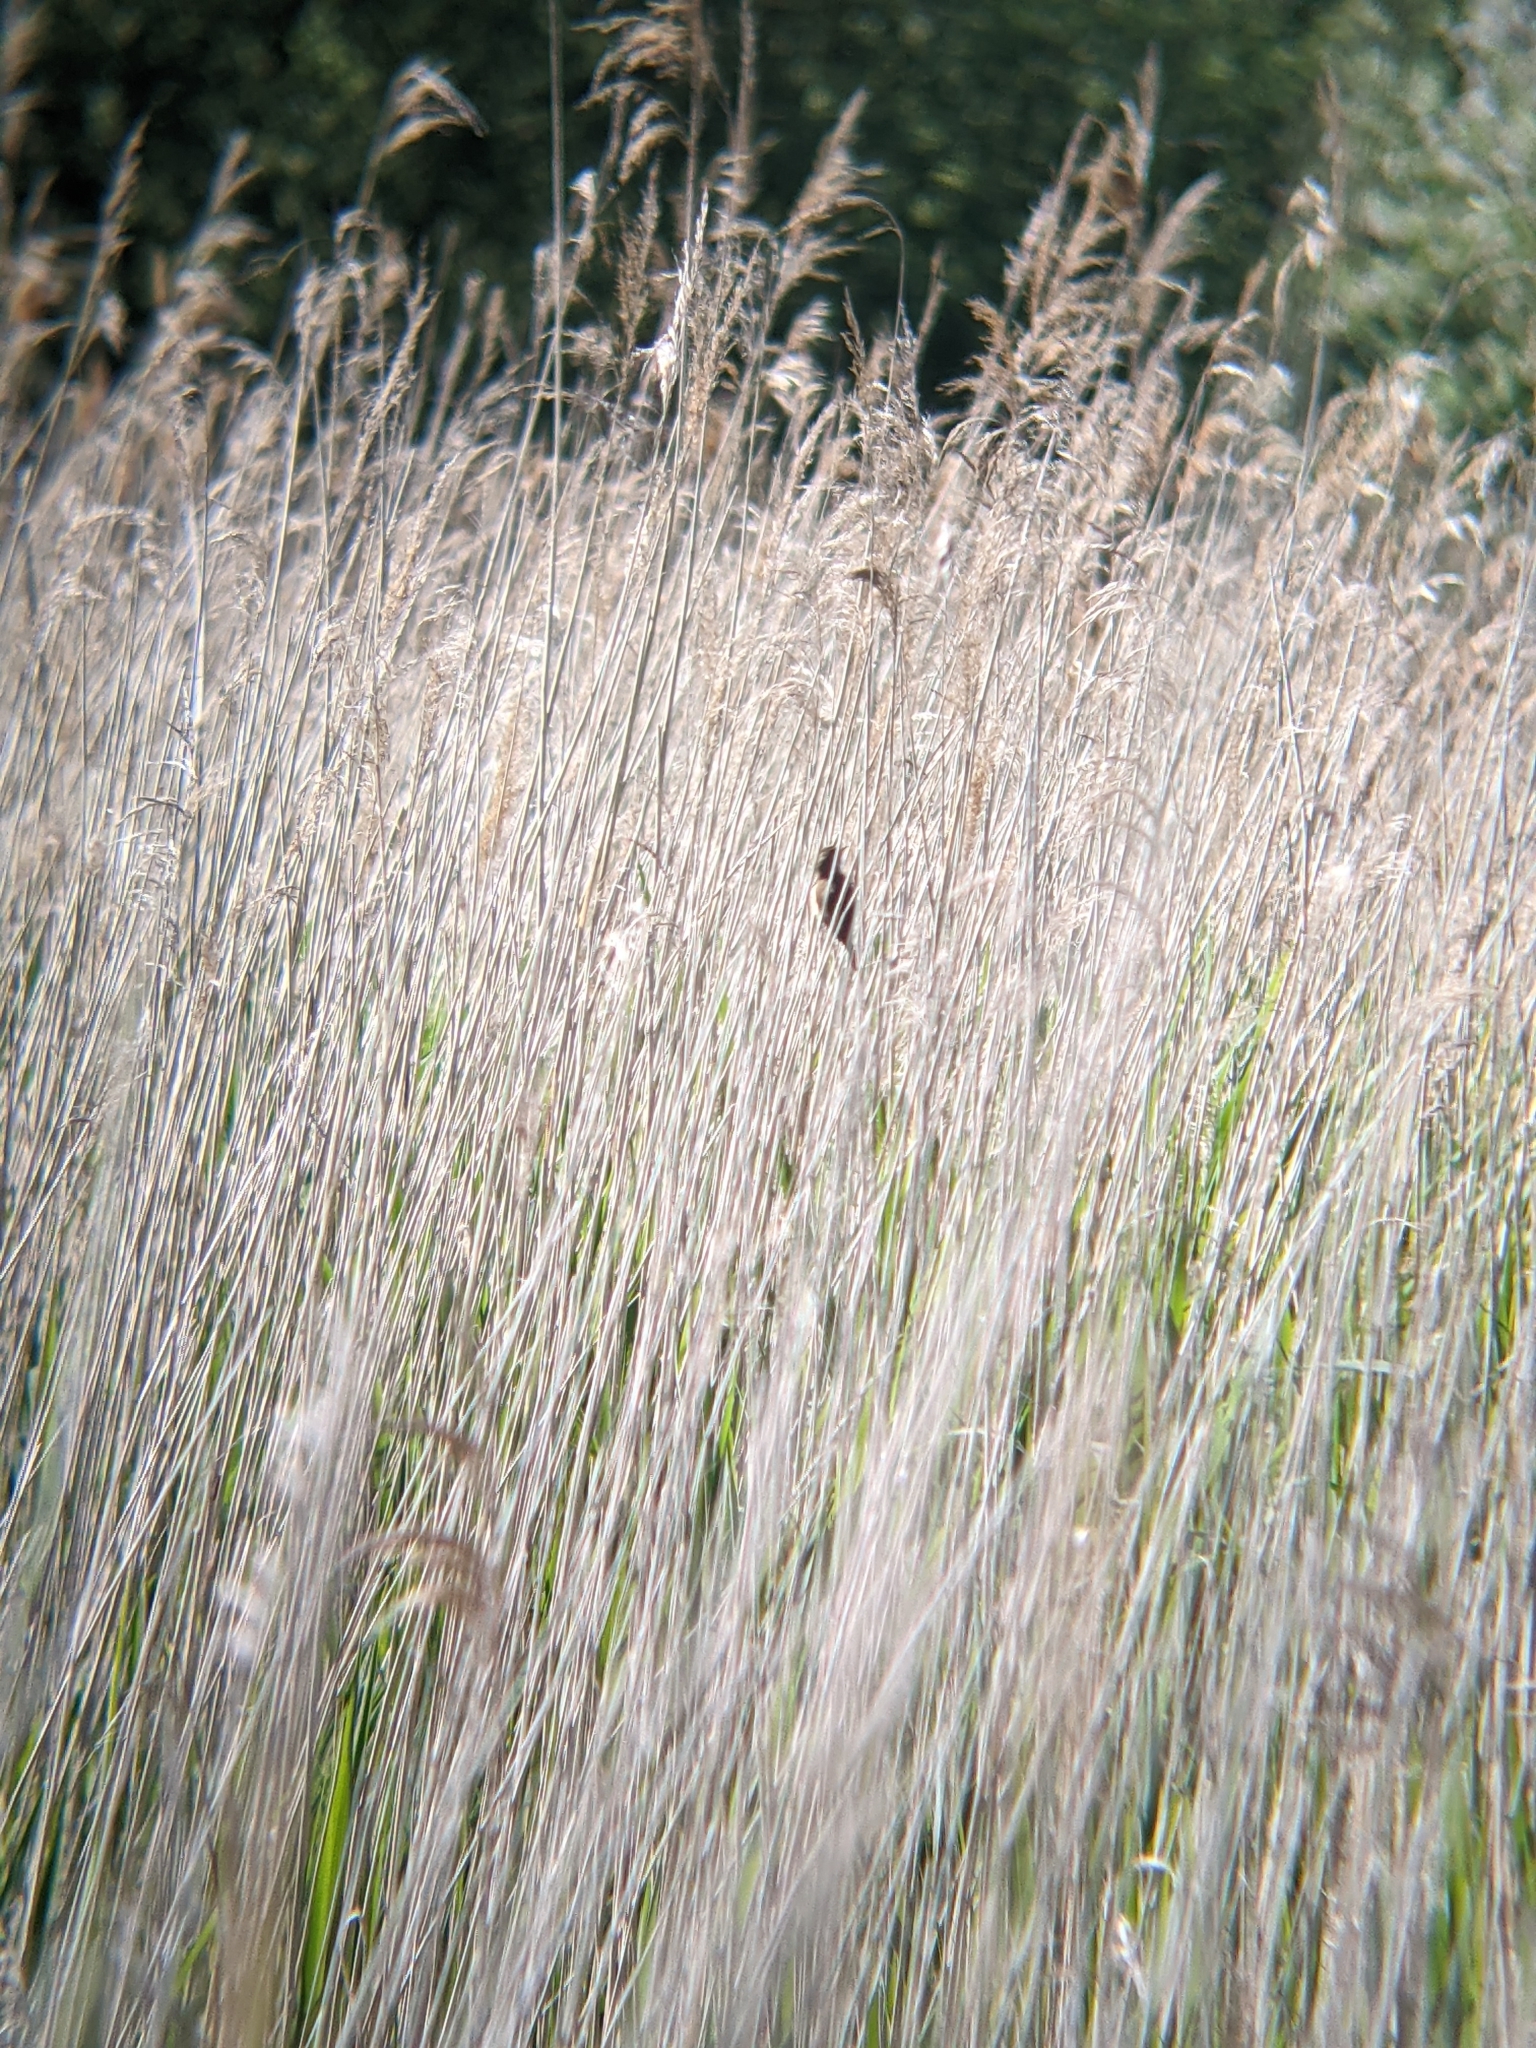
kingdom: Animalia
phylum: Chordata
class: Aves
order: Passeriformes
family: Acrocephalidae
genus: Acrocephalus
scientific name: Acrocephalus scirpaceus
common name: Eurasian reed warbler
